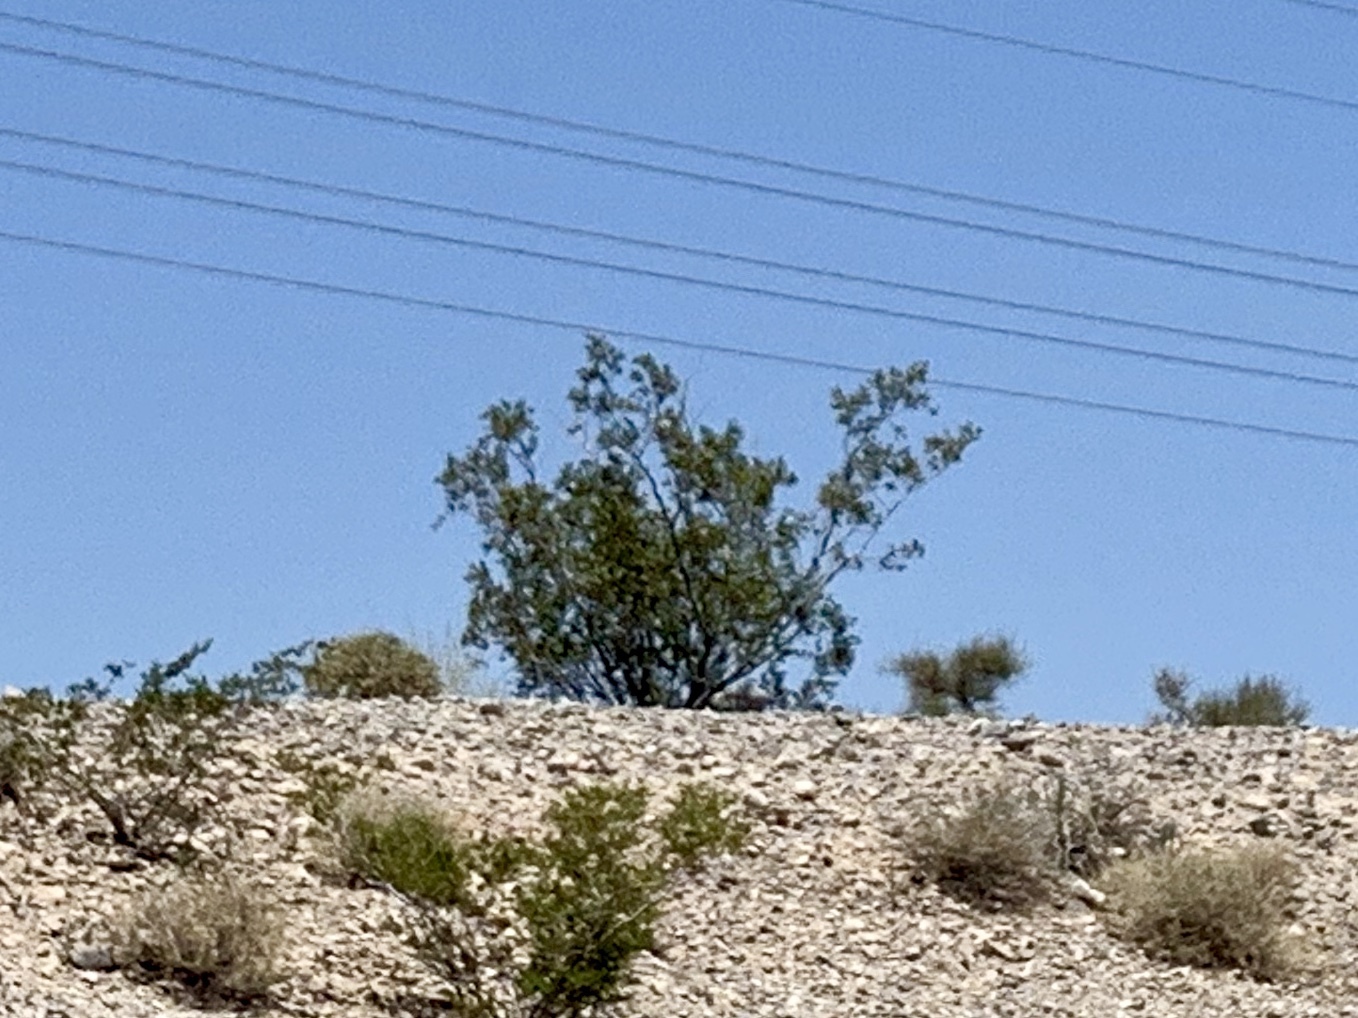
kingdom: Plantae
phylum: Tracheophyta
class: Magnoliopsida
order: Zygophyllales
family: Zygophyllaceae
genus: Larrea
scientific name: Larrea tridentata
